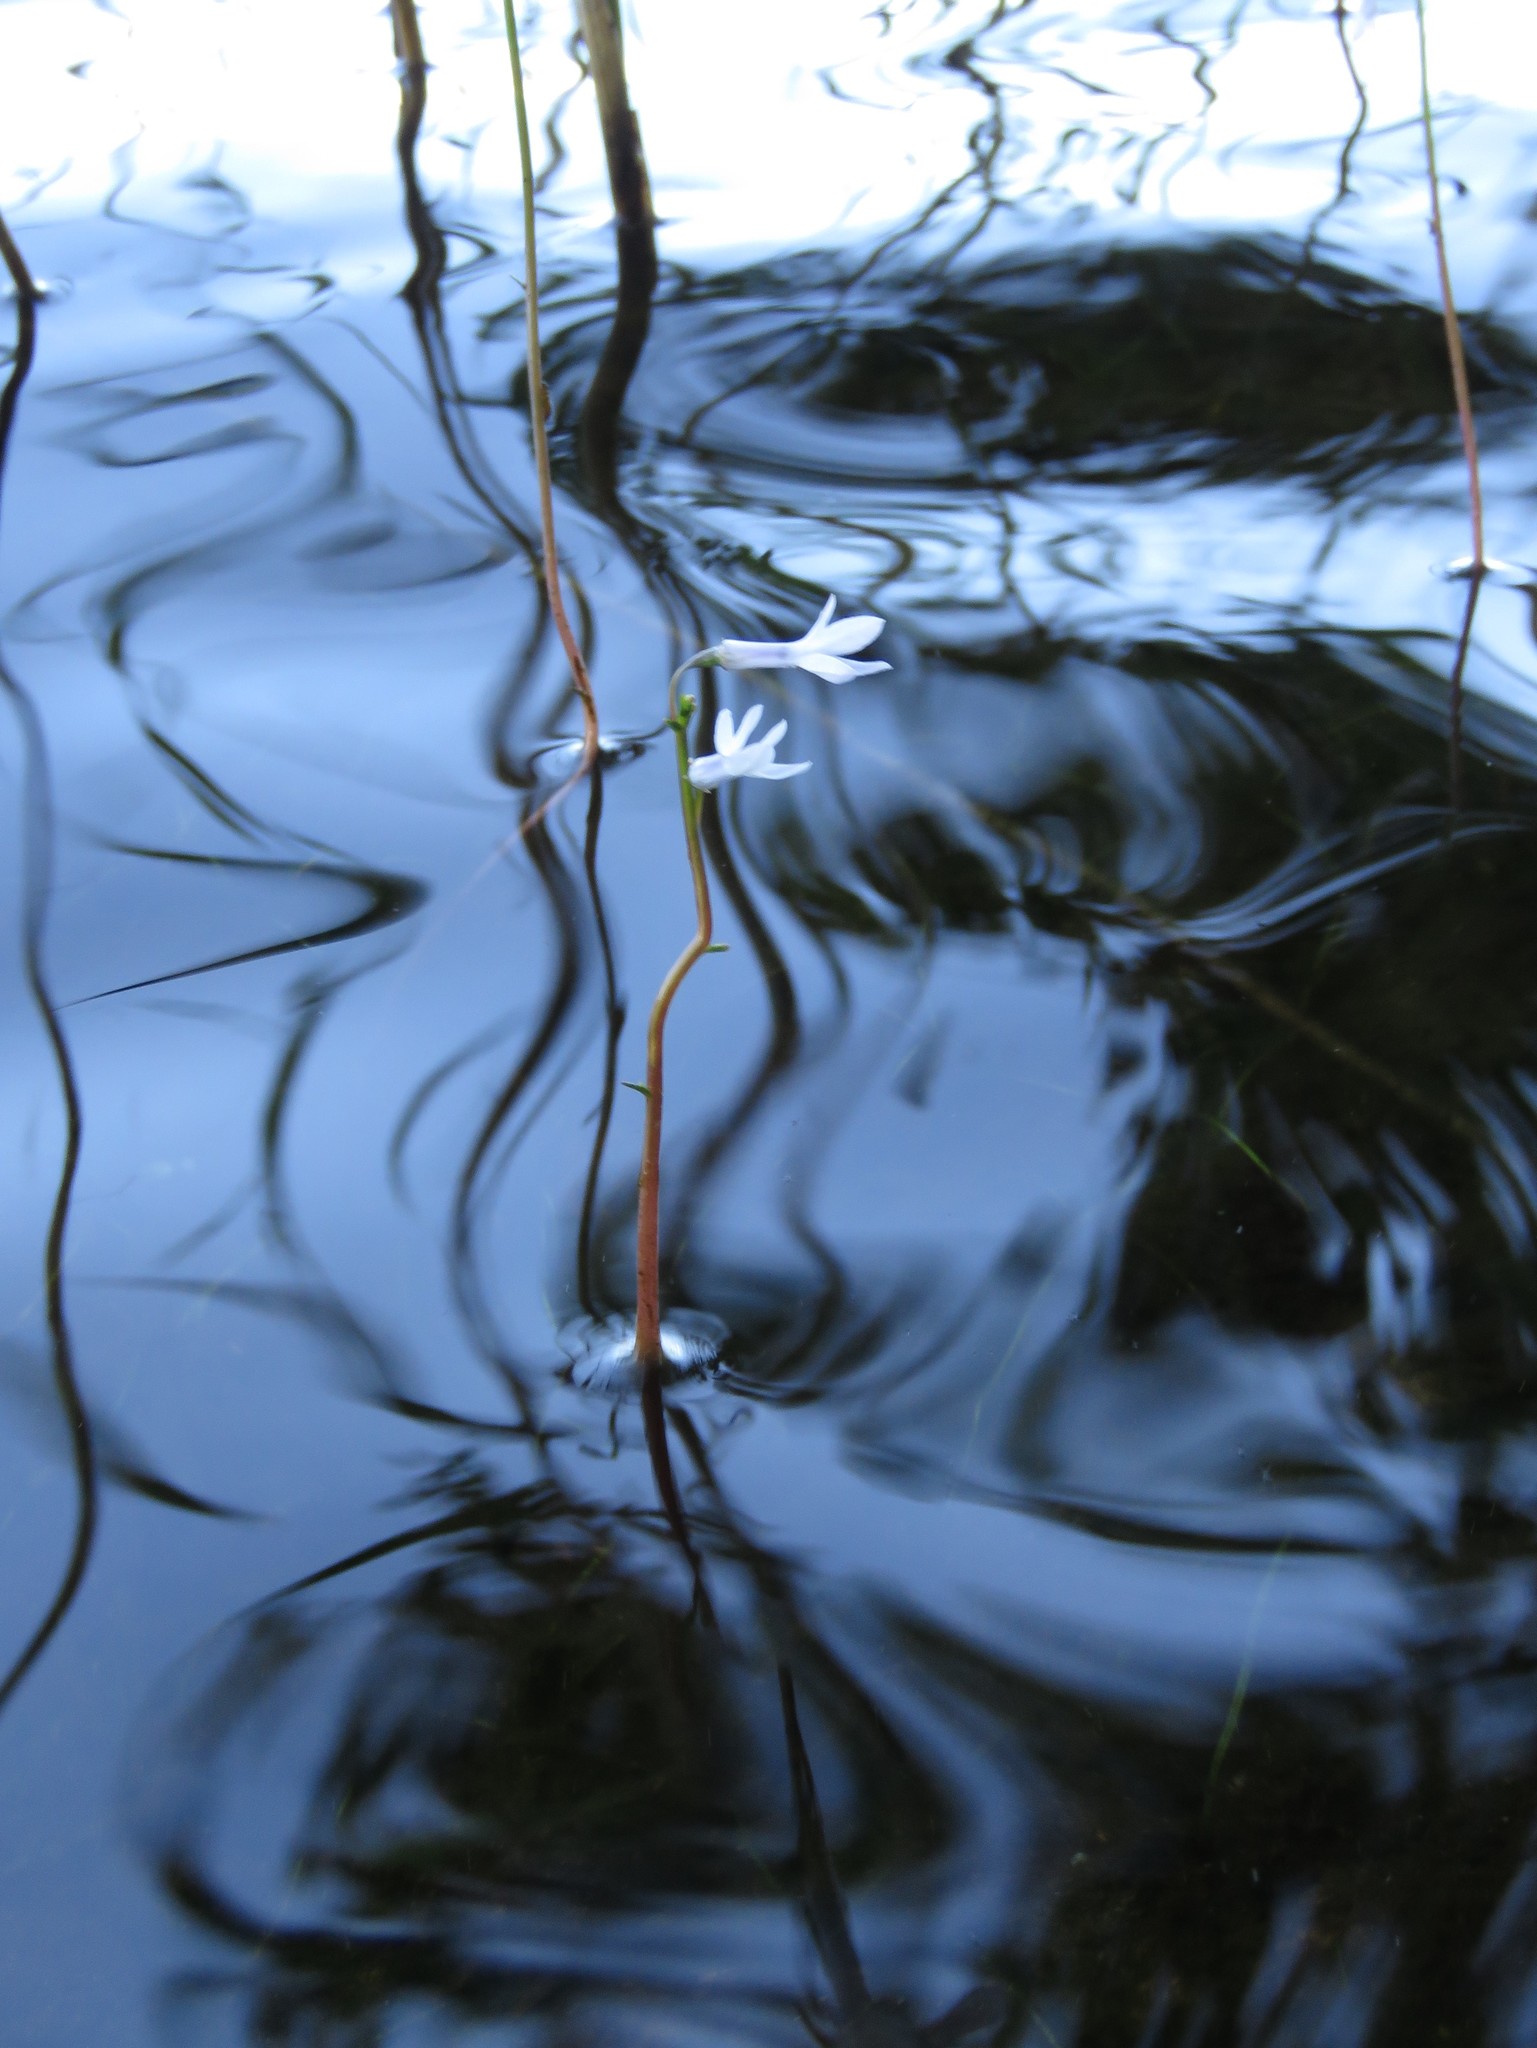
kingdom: Plantae
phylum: Tracheophyta
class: Magnoliopsida
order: Asterales
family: Campanulaceae
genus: Lobelia
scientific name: Lobelia dortmanna
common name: Water lobelia
